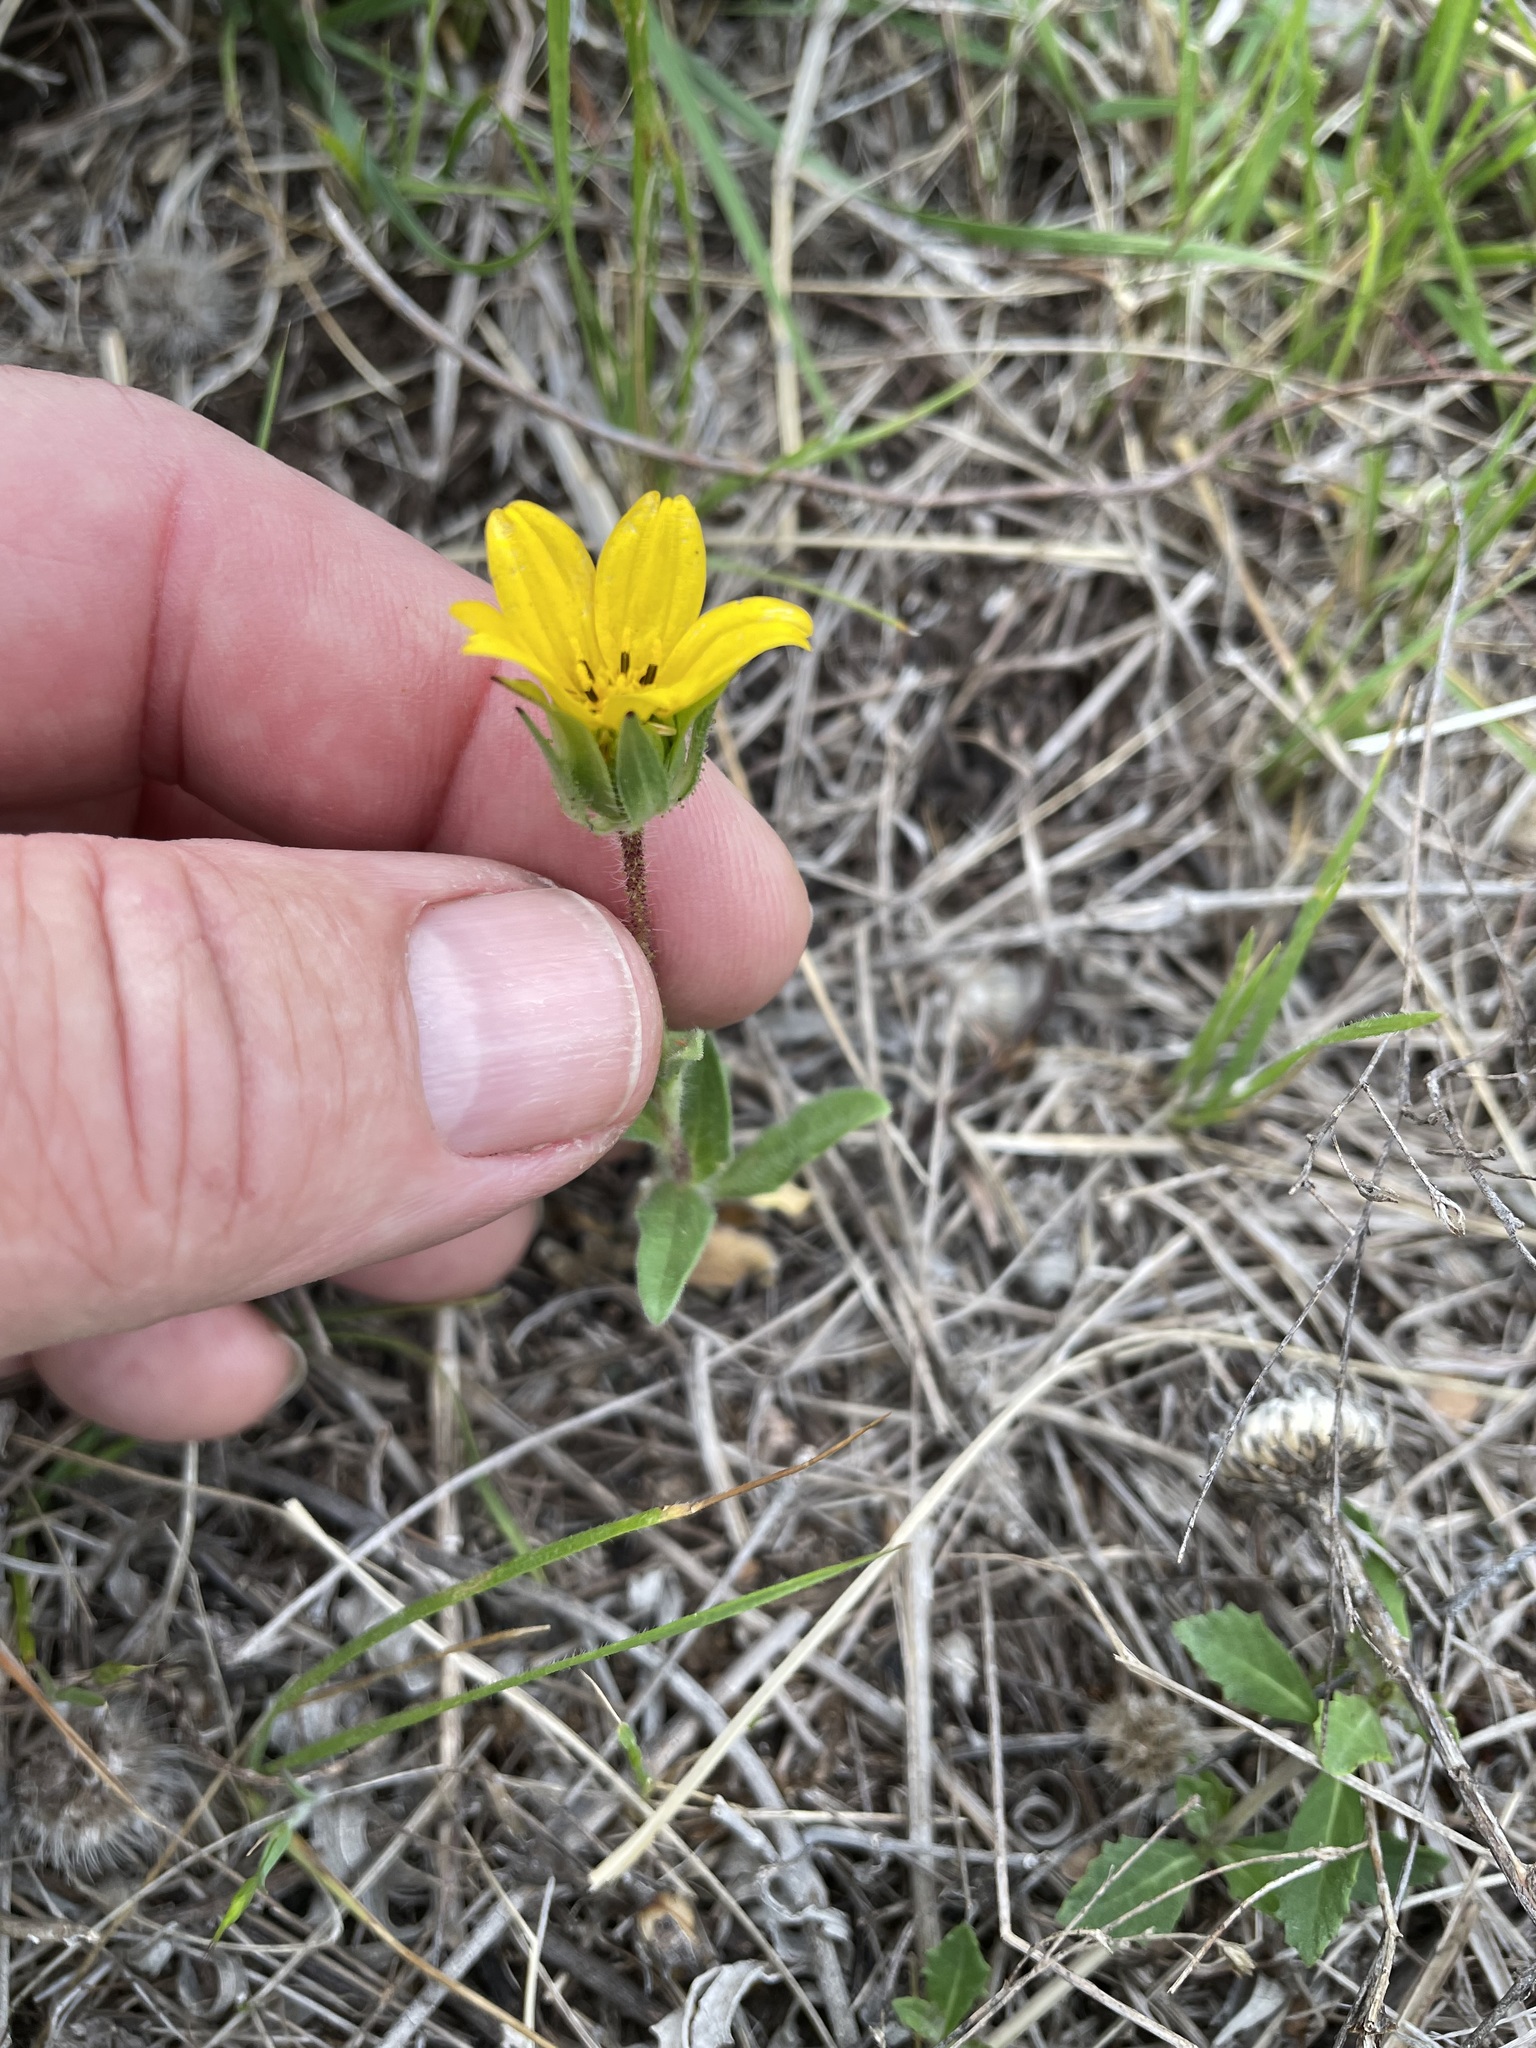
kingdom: Plantae
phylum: Tracheophyta
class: Magnoliopsida
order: Asterales
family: Asteraceae
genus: Lindheimera
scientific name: Lindheimera texana
